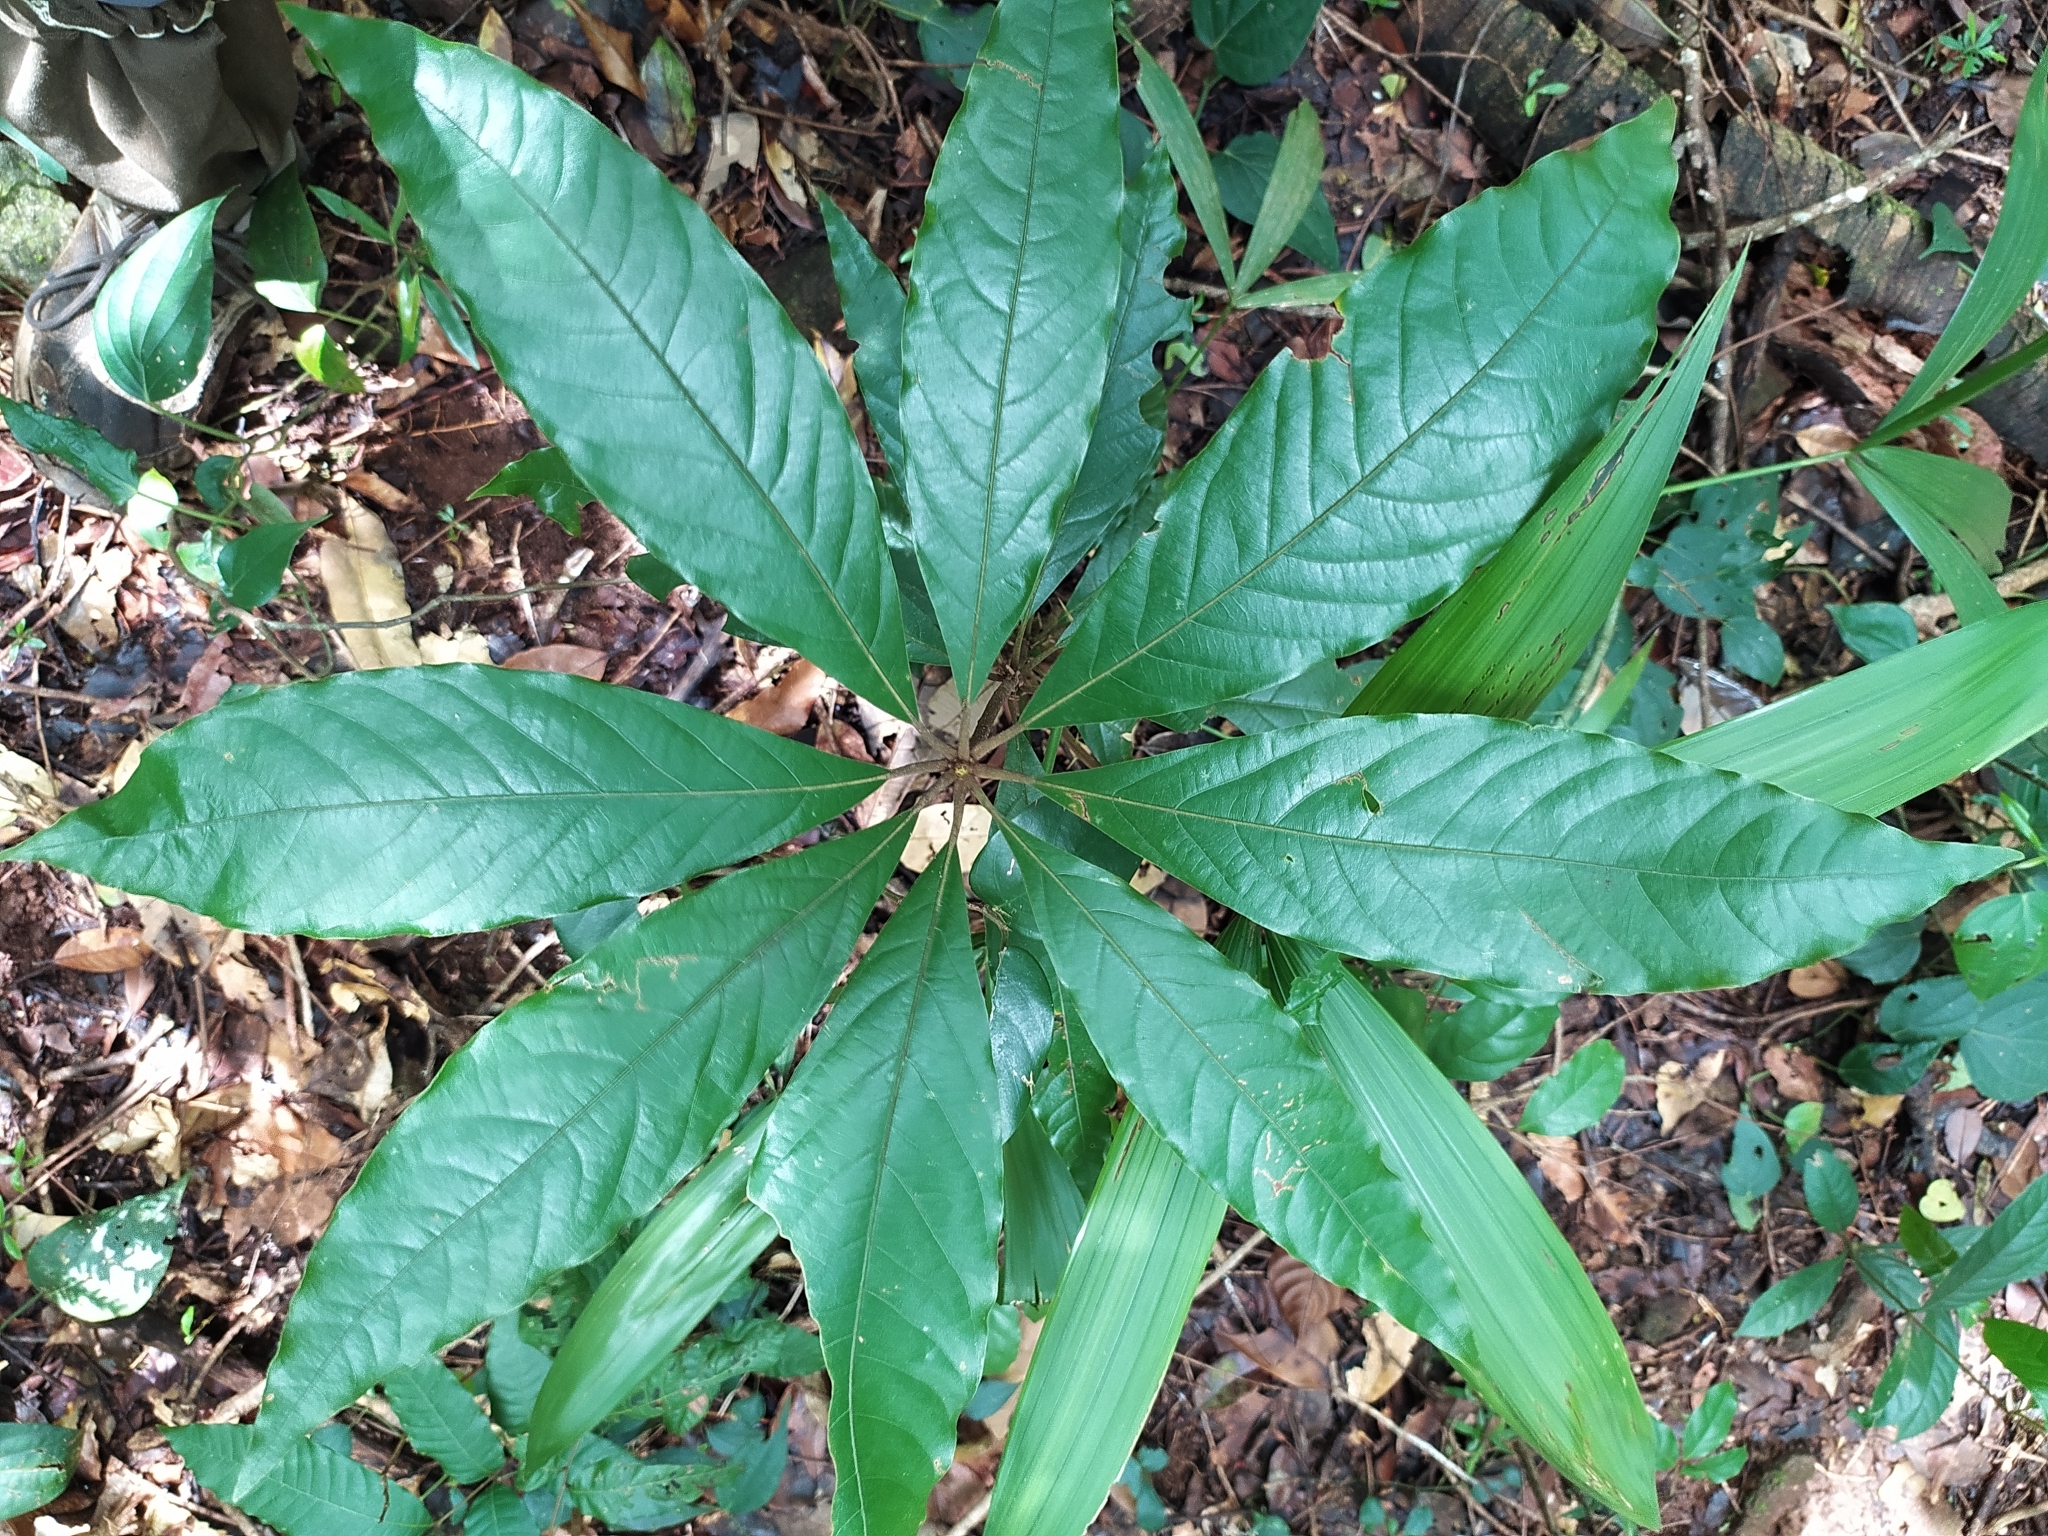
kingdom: Plantae
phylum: Tracheophyta
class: Magnoliopsida
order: Laurales
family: Lauraceae
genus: Actinodaphne
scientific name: Actinodaphne bourdillonii
